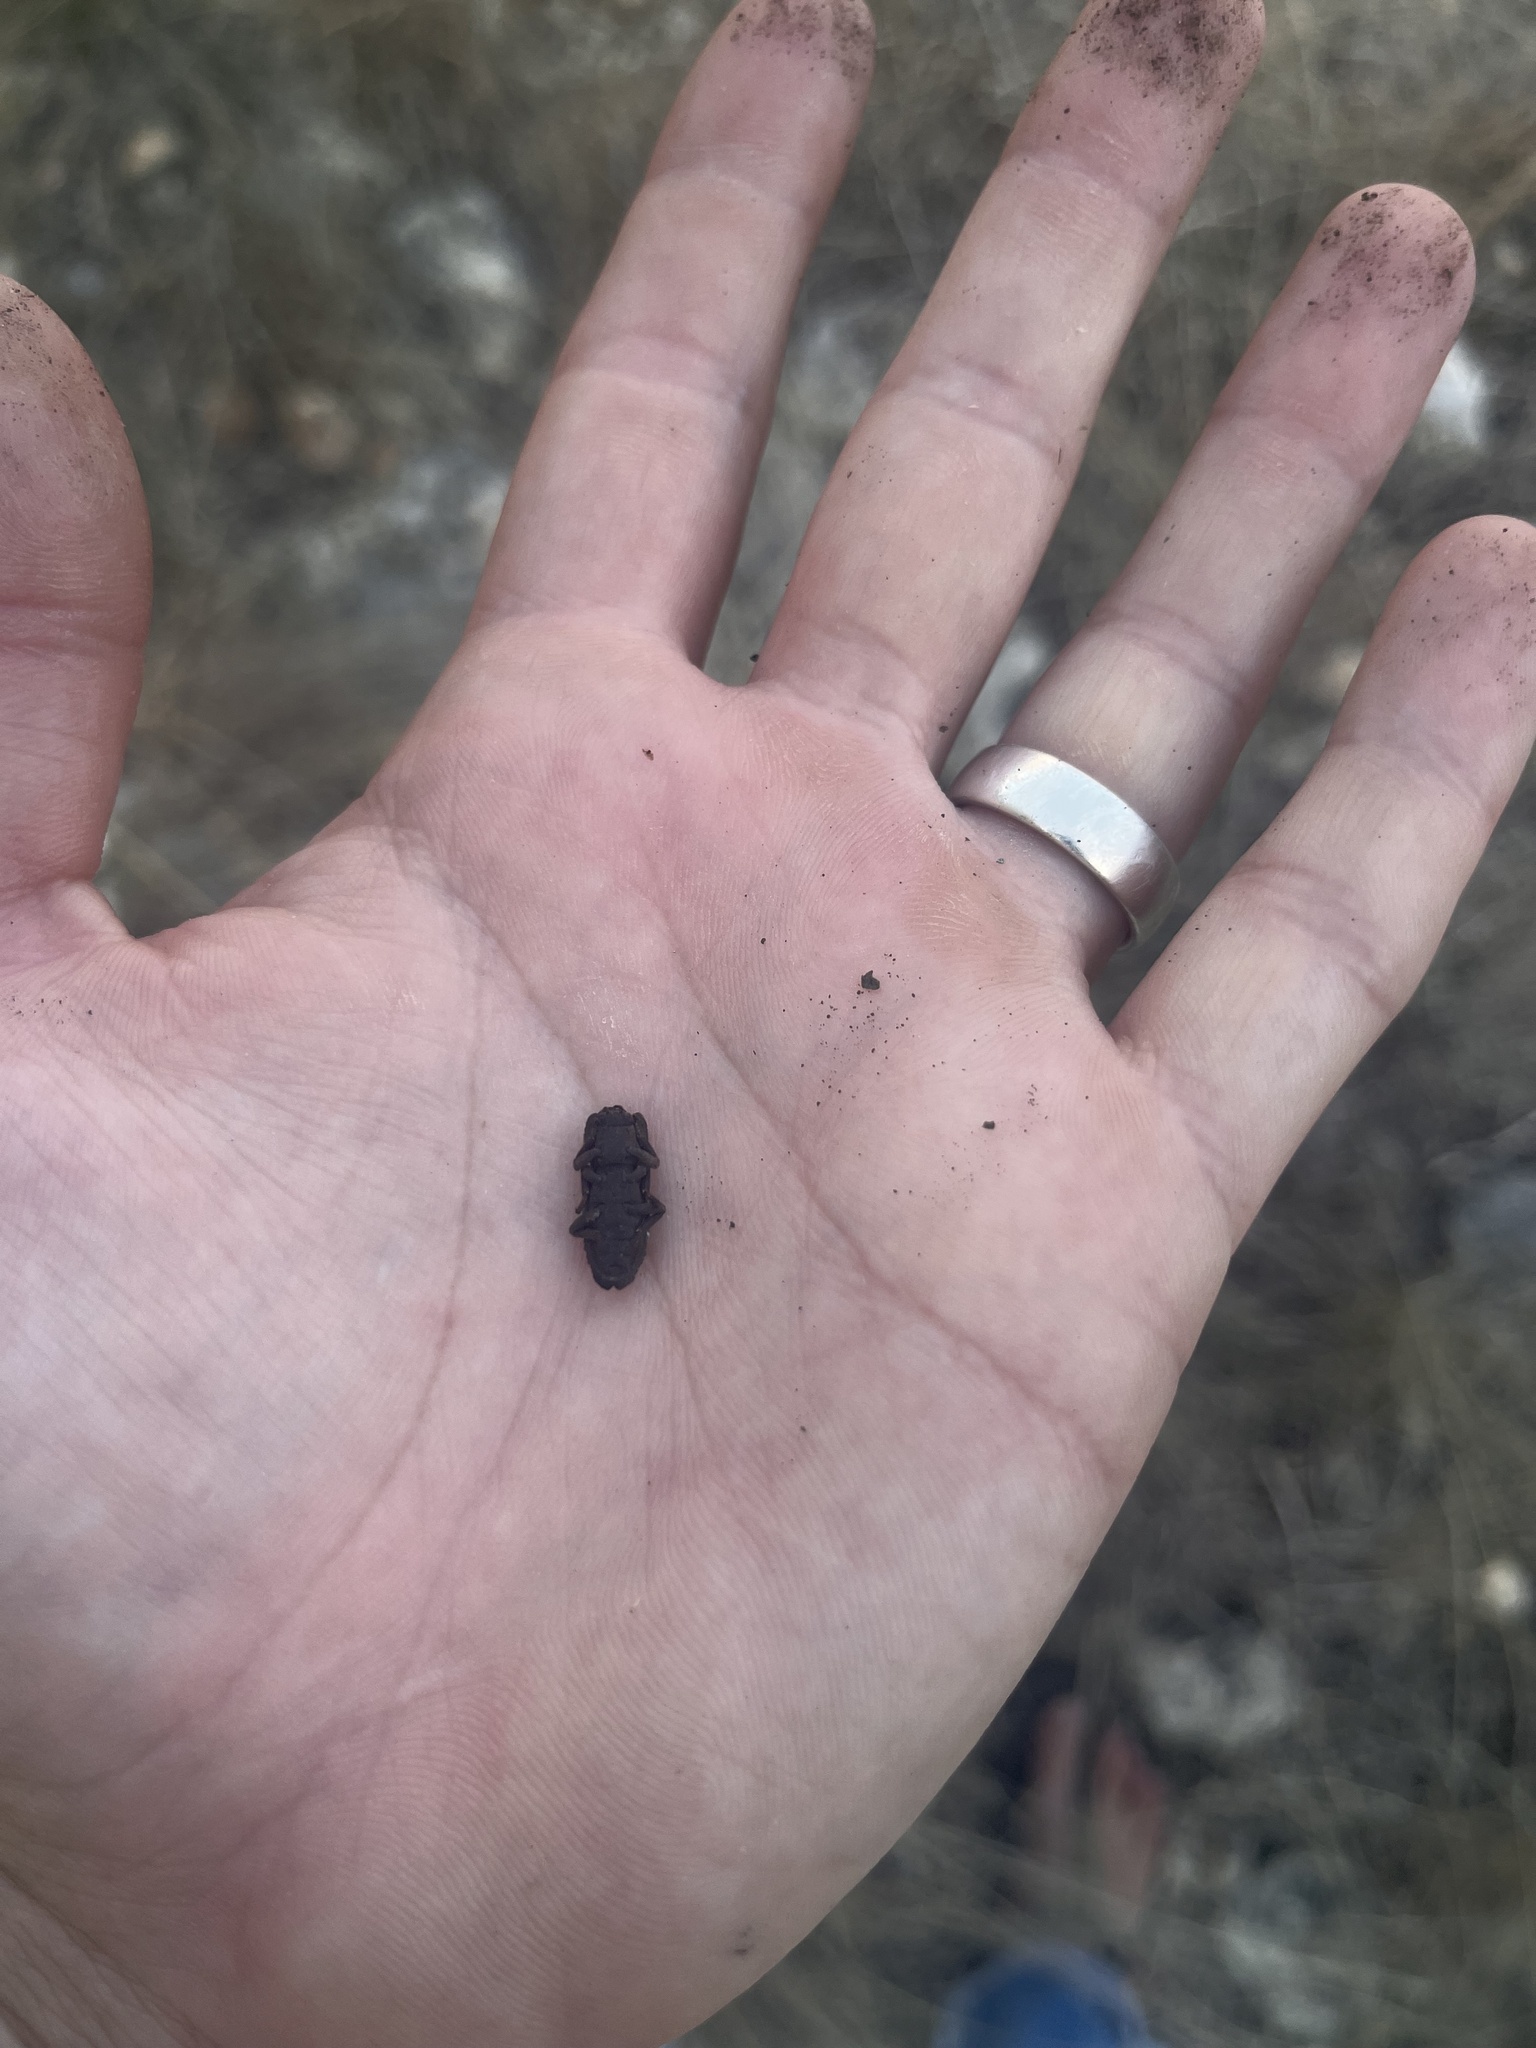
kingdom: Animalia
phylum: Arthropoda
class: Insecta
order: Coleoptera
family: Zopheridae
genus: Sesaspis
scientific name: Sesaspis
